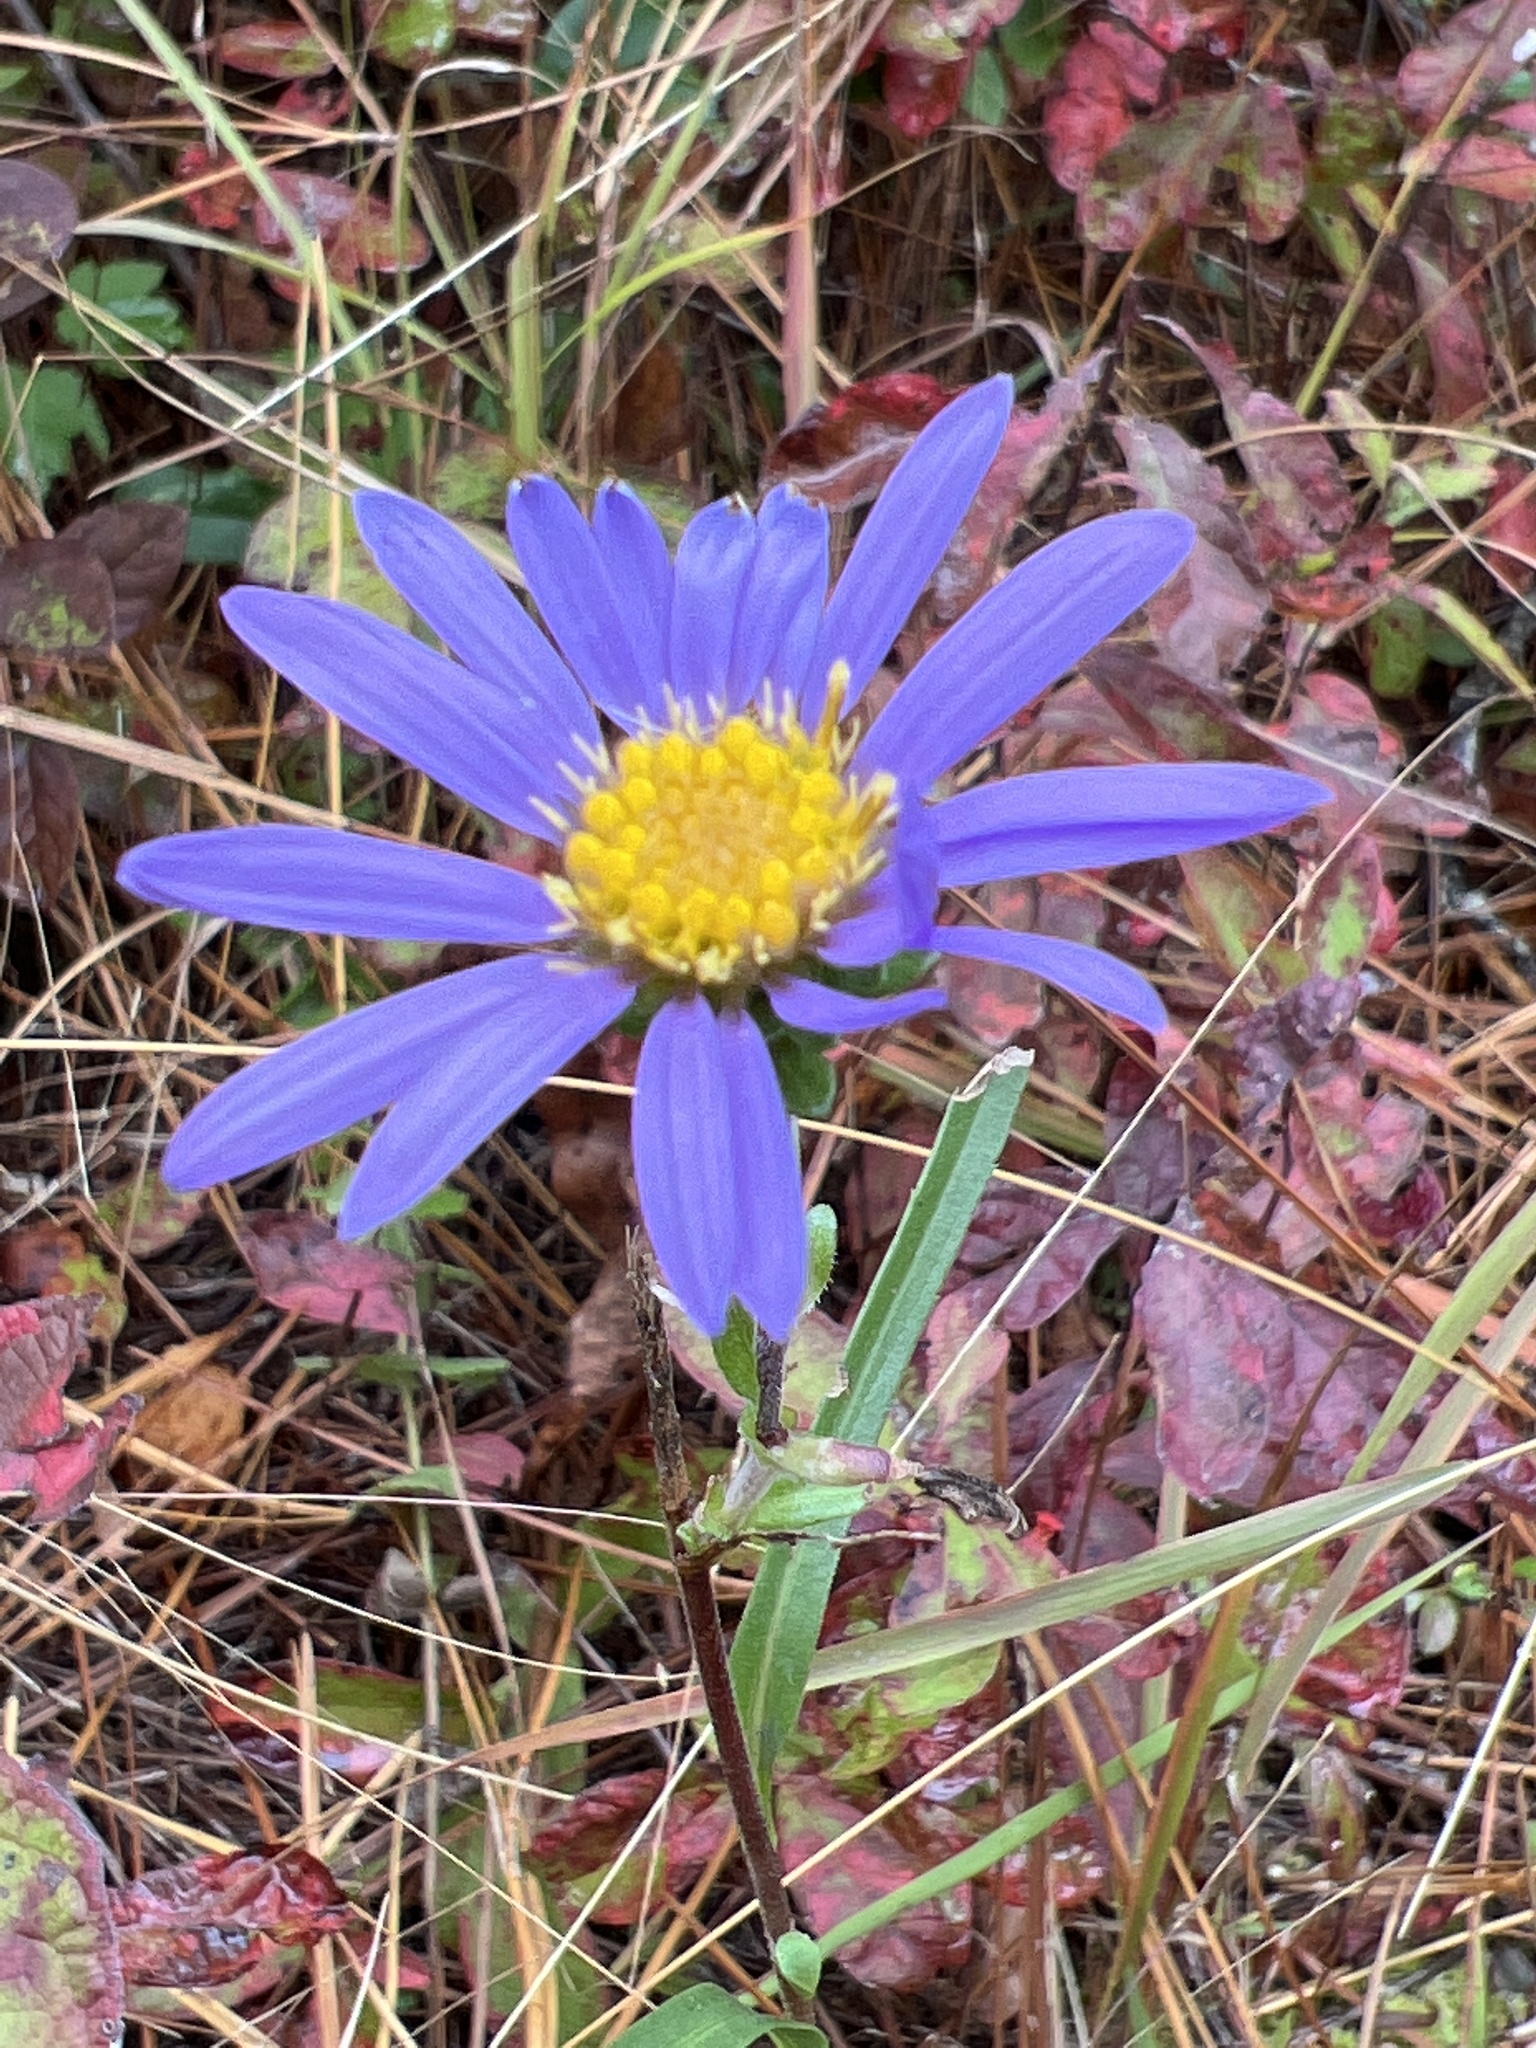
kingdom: Plantae
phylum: Tracheophyta
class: Magnoliopsida
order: Asterales
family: Asteraceae
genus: Eurybia
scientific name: Eurybia paludosa
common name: Southern swamp aster
